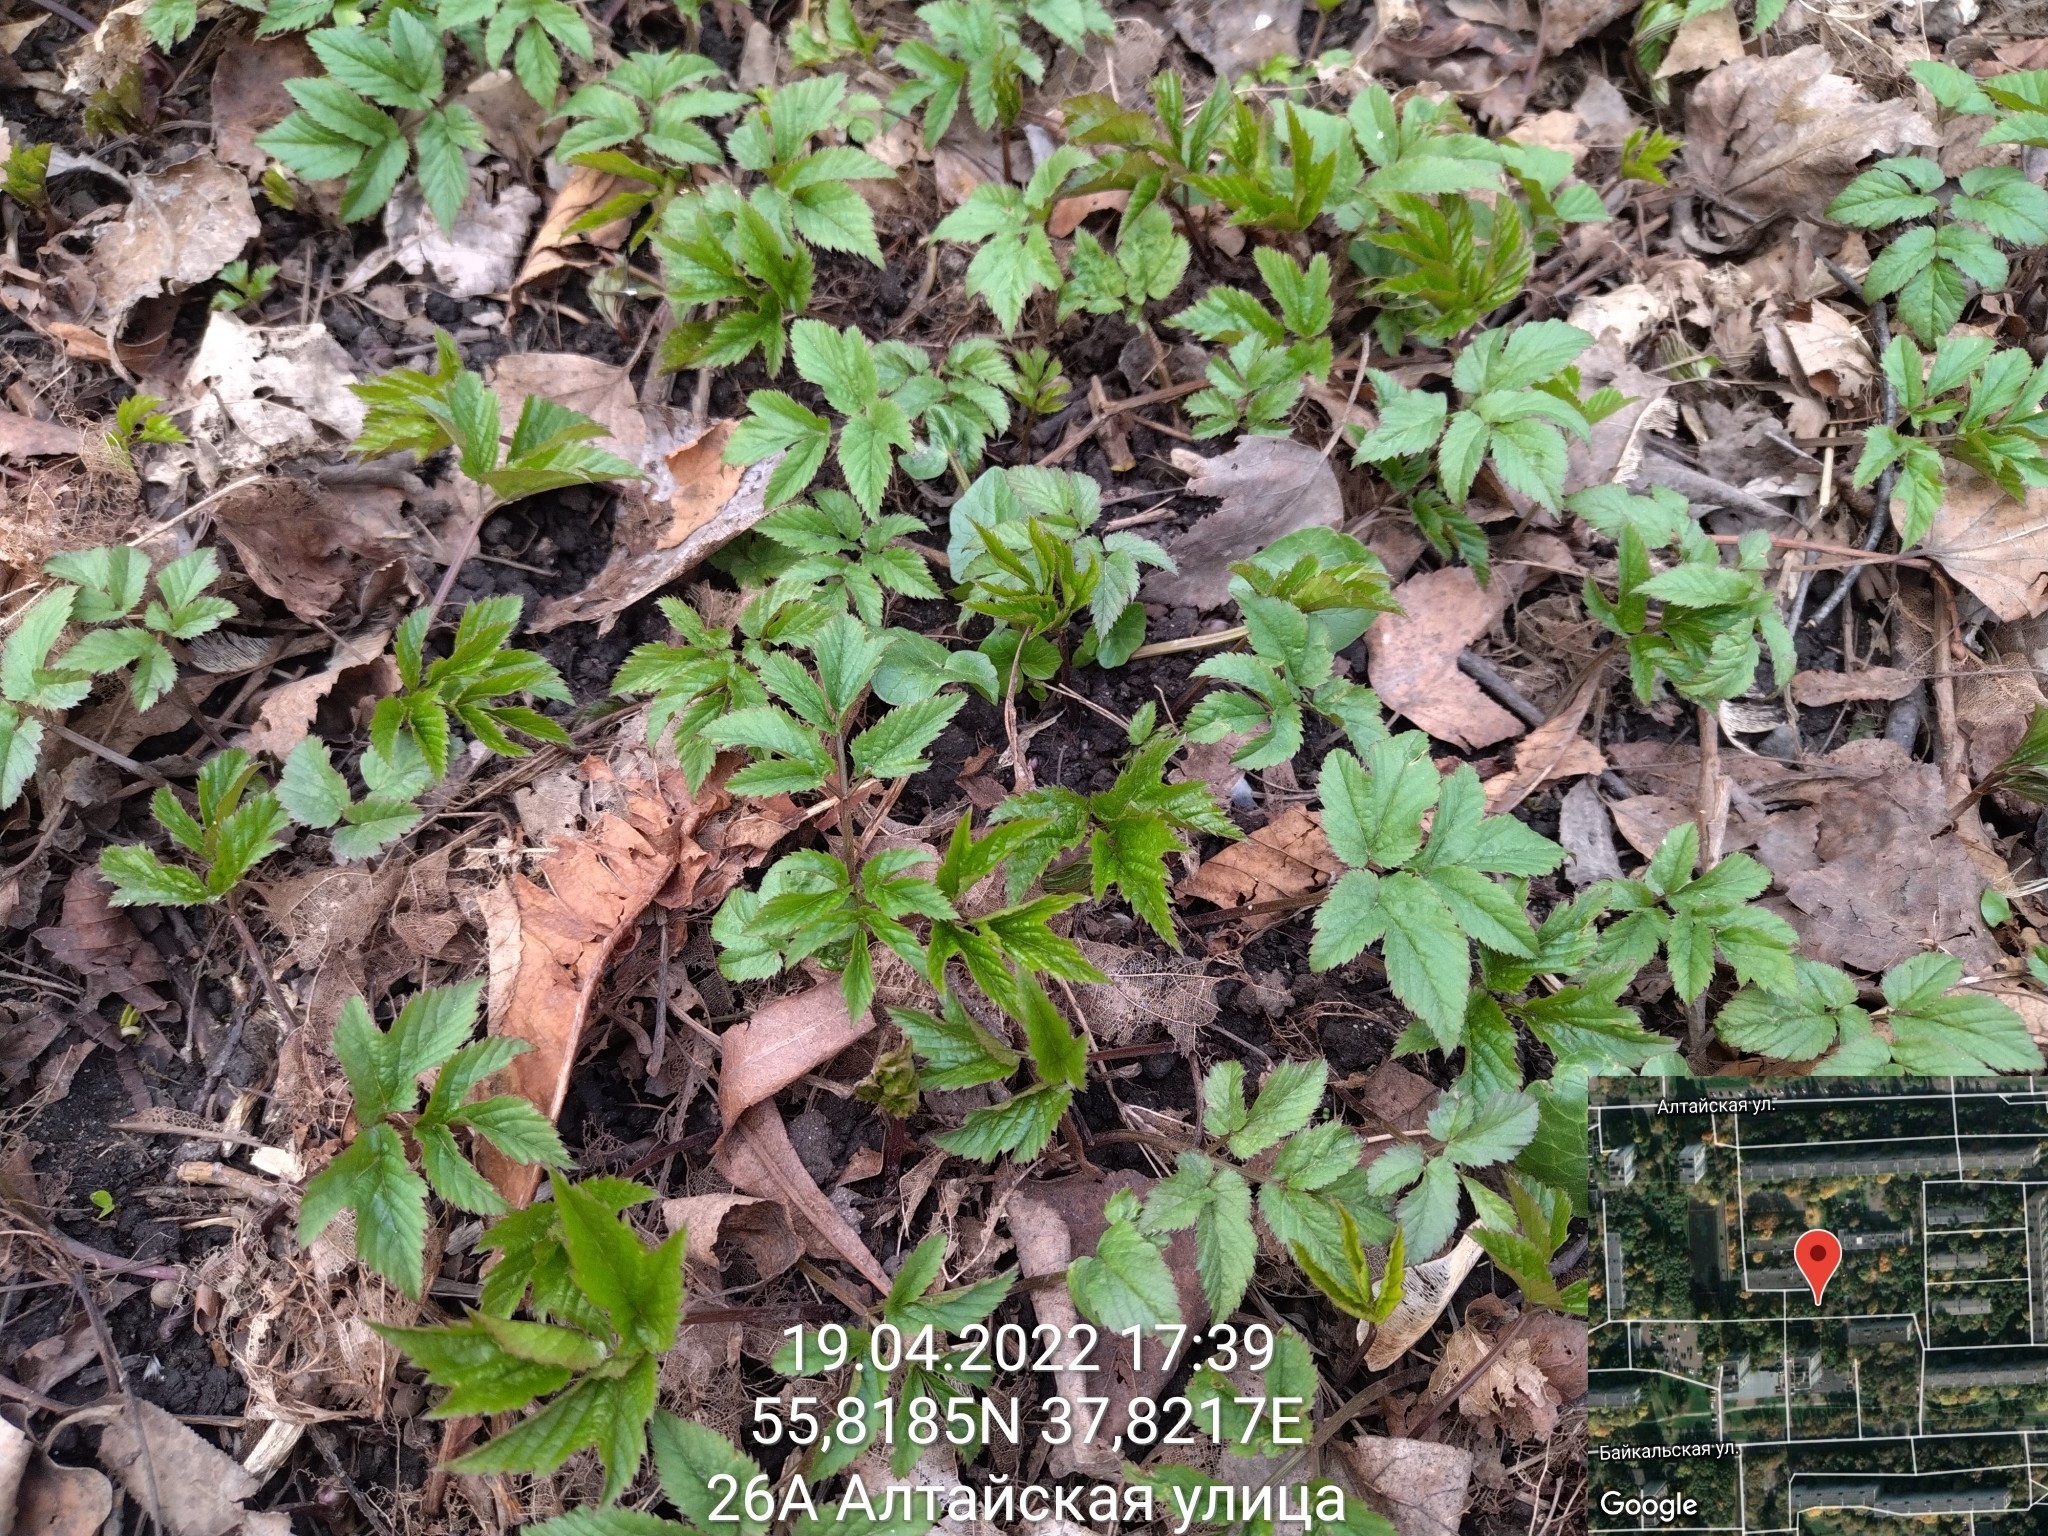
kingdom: Plantae
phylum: Tracheophyta
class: Magnoliopsida
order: Apiales
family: Apiaceae
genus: Aegopodium
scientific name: Aegopodium podagraria
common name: Ground-elder
